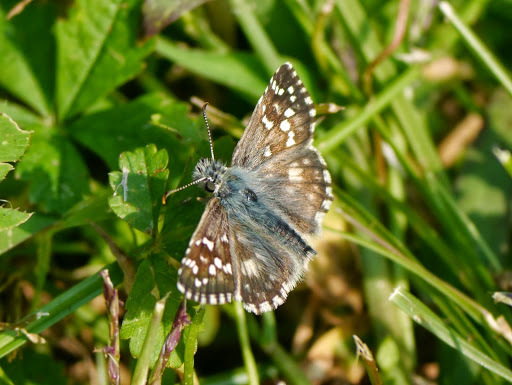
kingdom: Animalia
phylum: Arthropoda
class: Insecta
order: Lepidoptera
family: Hesperiidae
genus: Pyrgus
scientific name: Pyrgus armoricanus
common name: Oberthür's grizzled skipper
